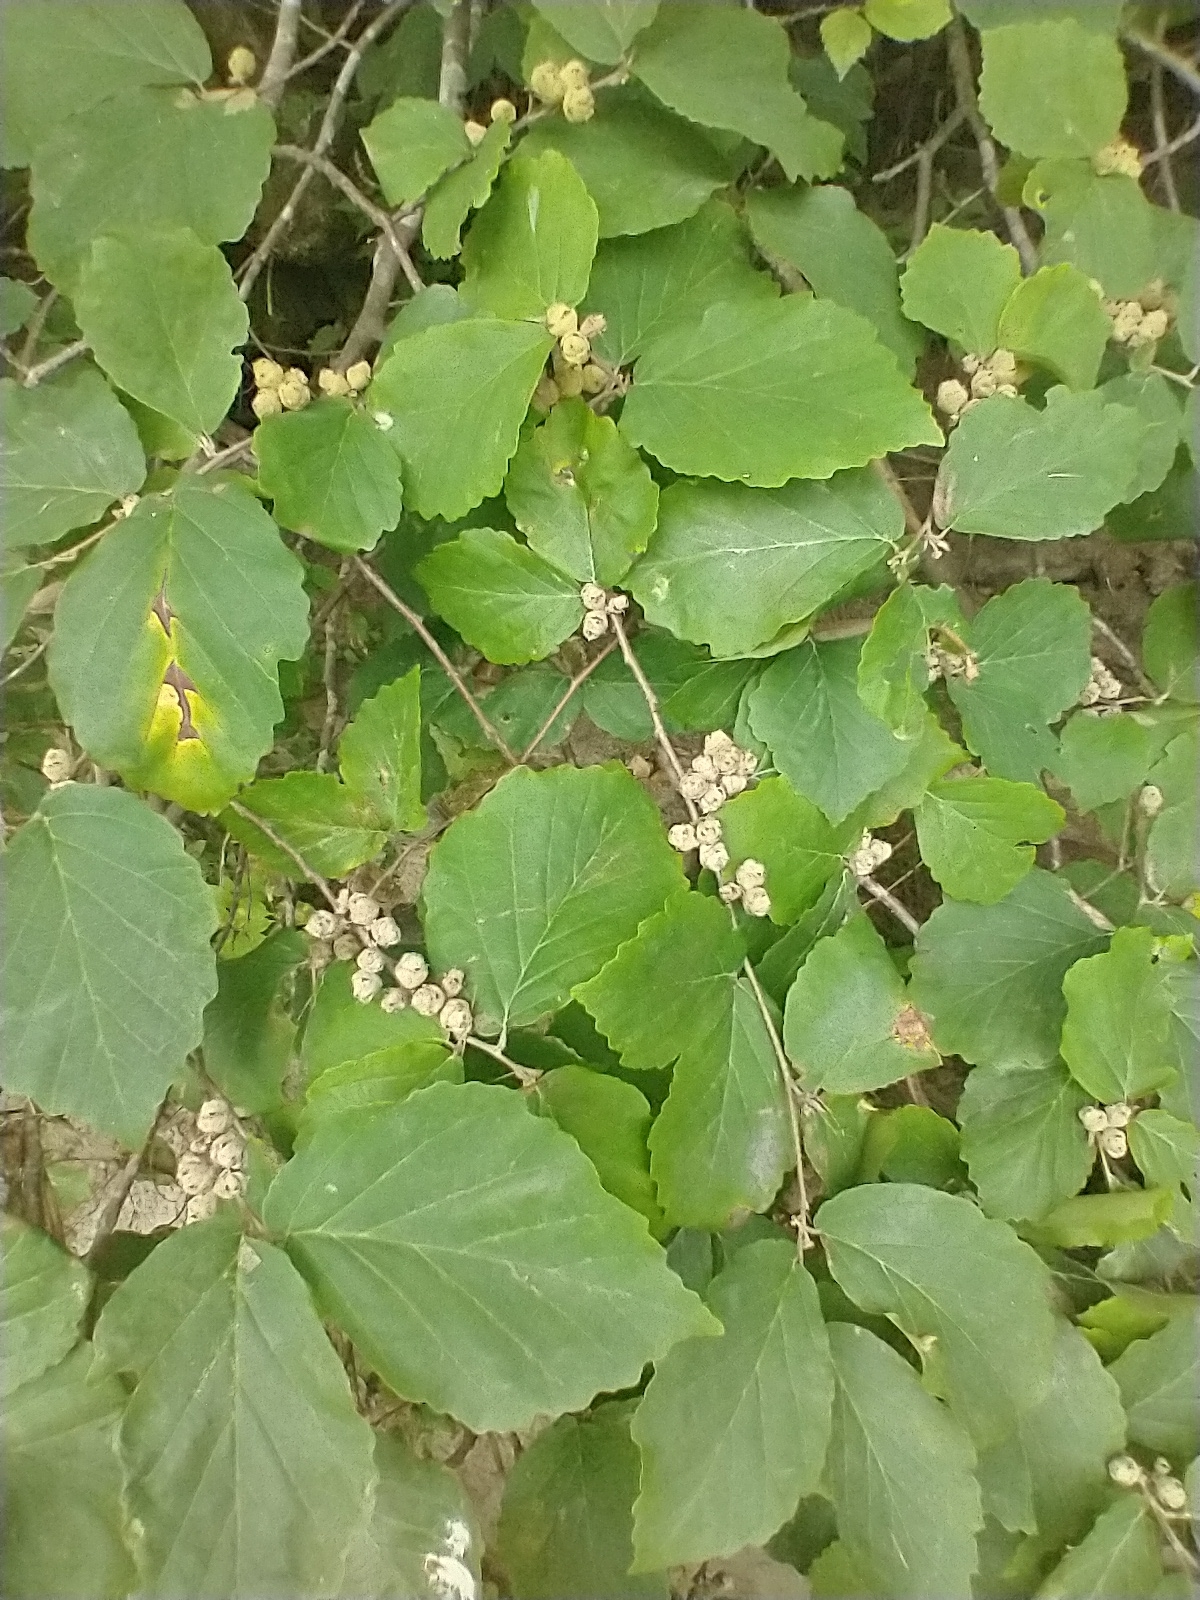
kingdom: Plantae
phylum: Tracheophyta
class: Magnoliopsida
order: Saxifragales
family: Hamamelidaceae
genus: Hamamelis
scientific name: Hamamelis virginiana
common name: Witch-hazel
